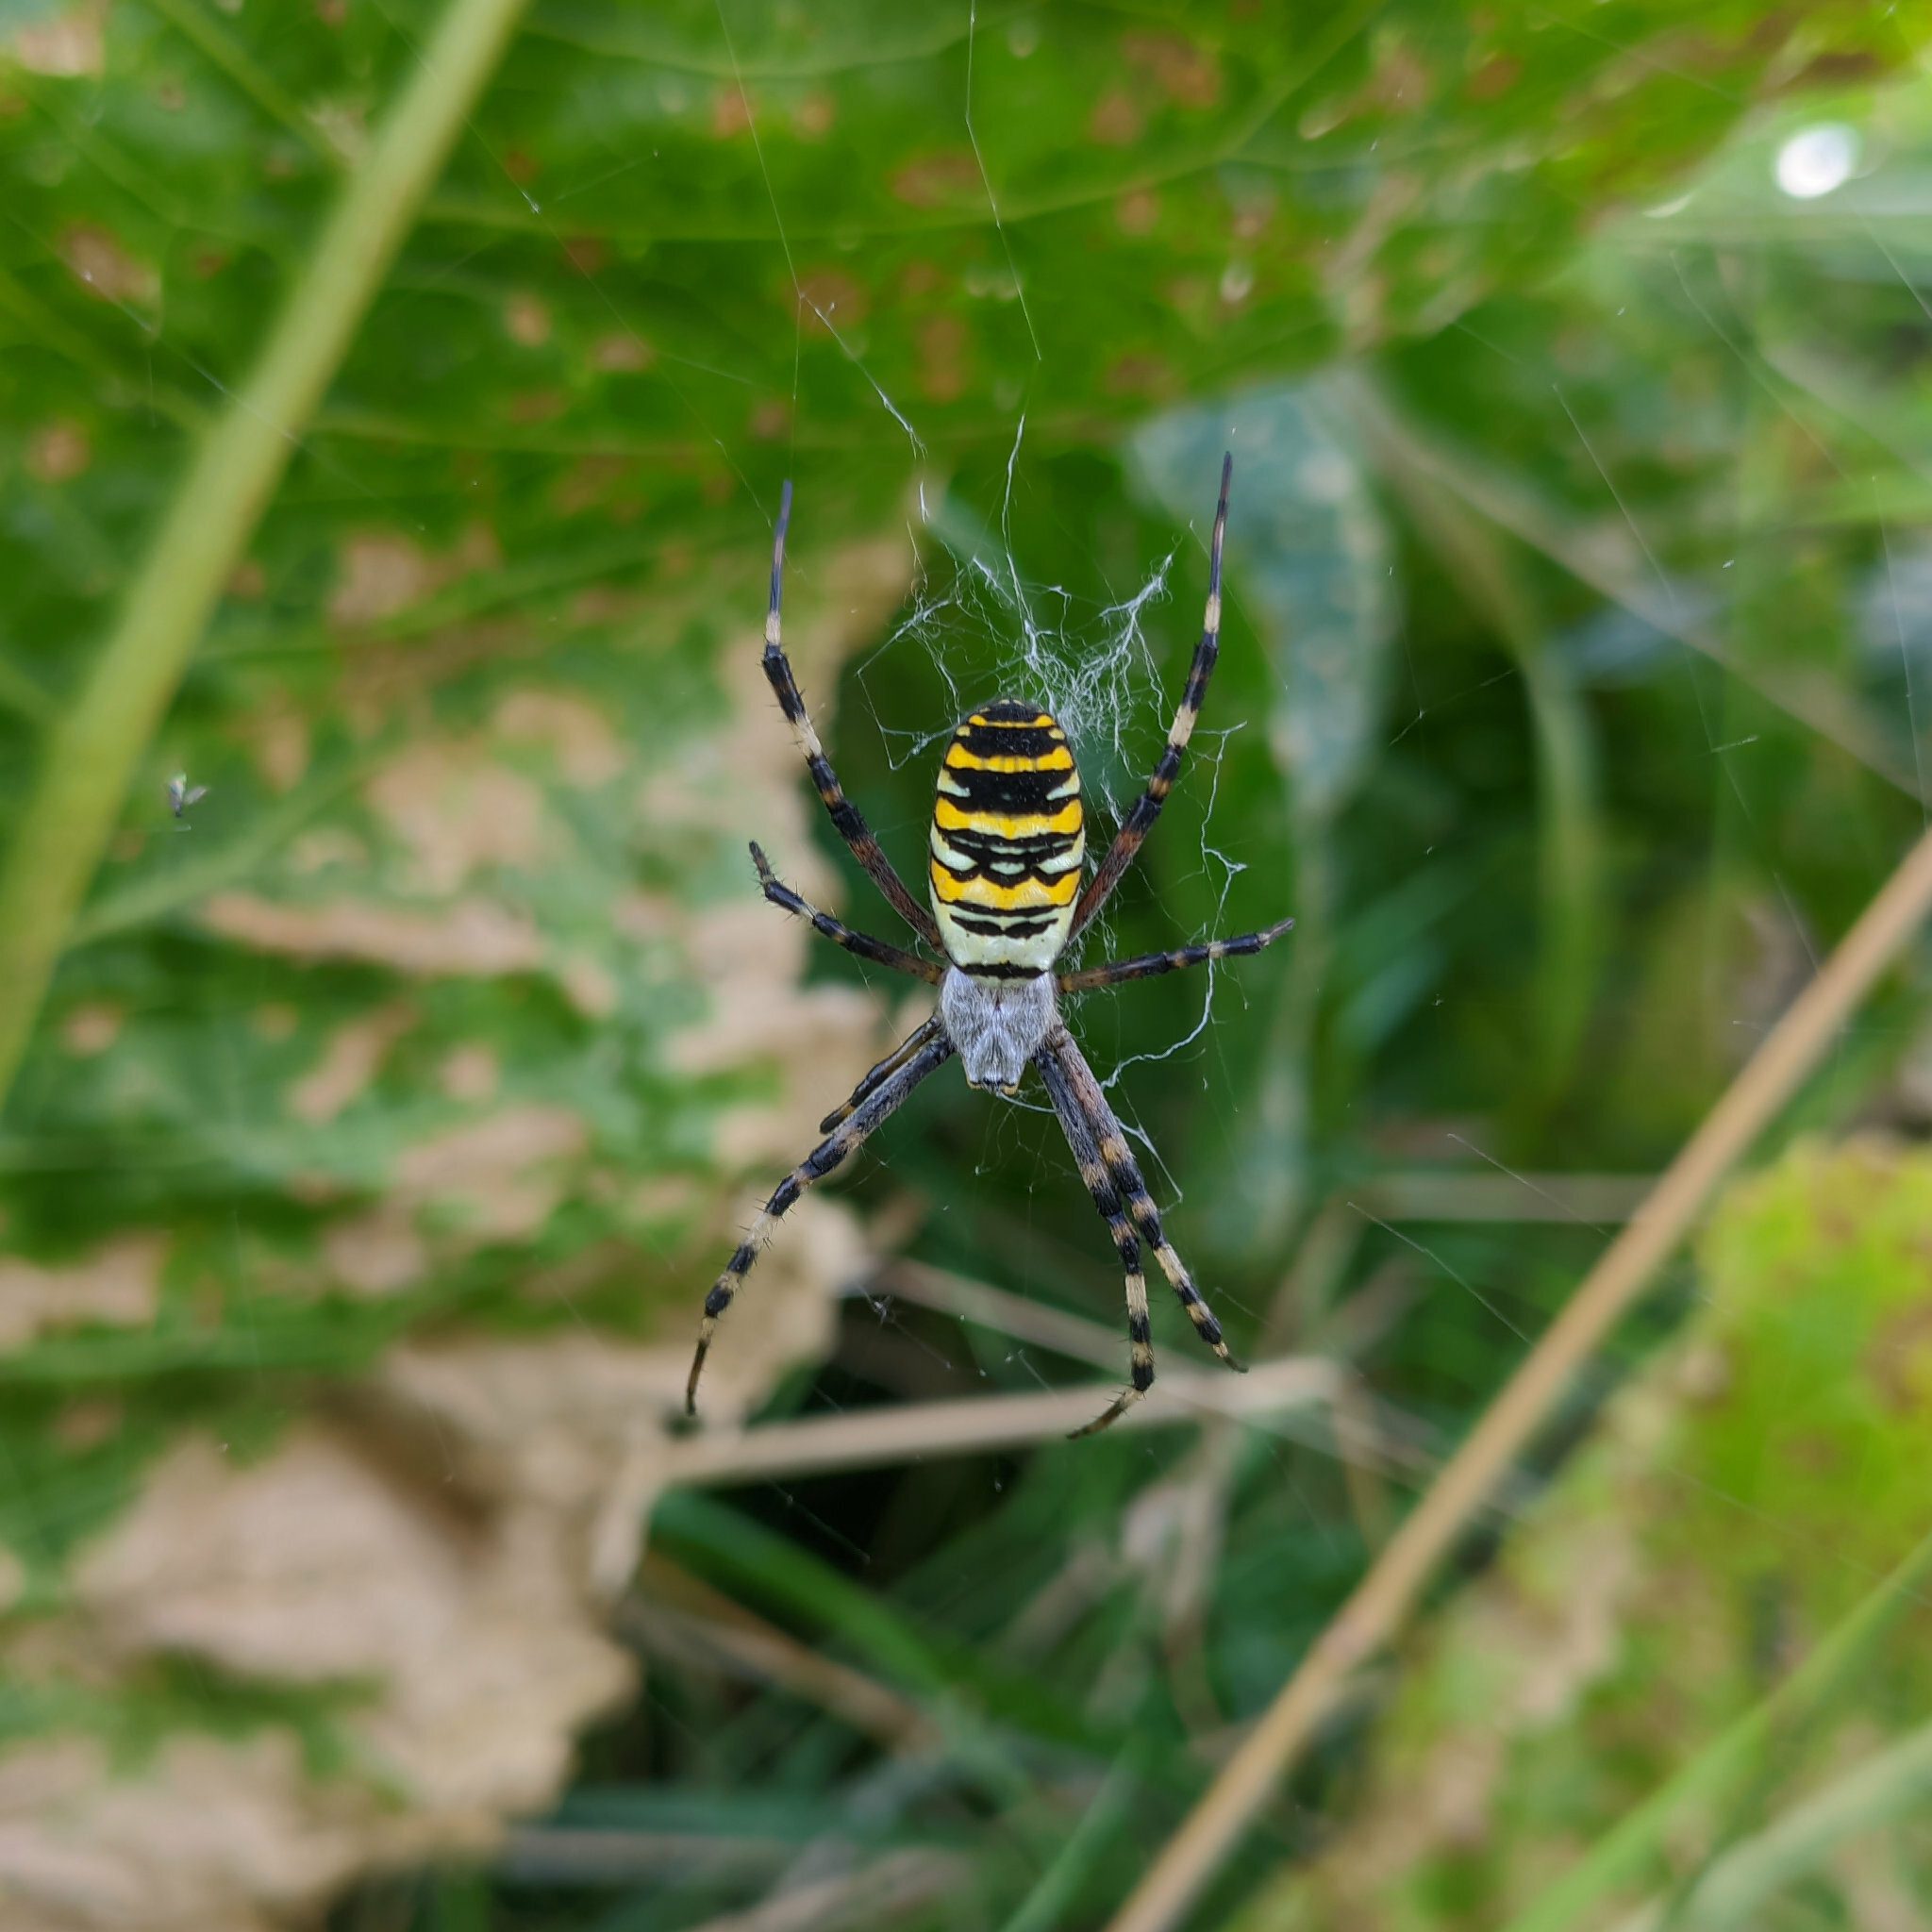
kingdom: Animalia
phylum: Arthropoda
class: Arachnida
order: Araneae
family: Araneidae
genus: Argiope
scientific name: Argiope bruennichi
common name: Wasp spider
